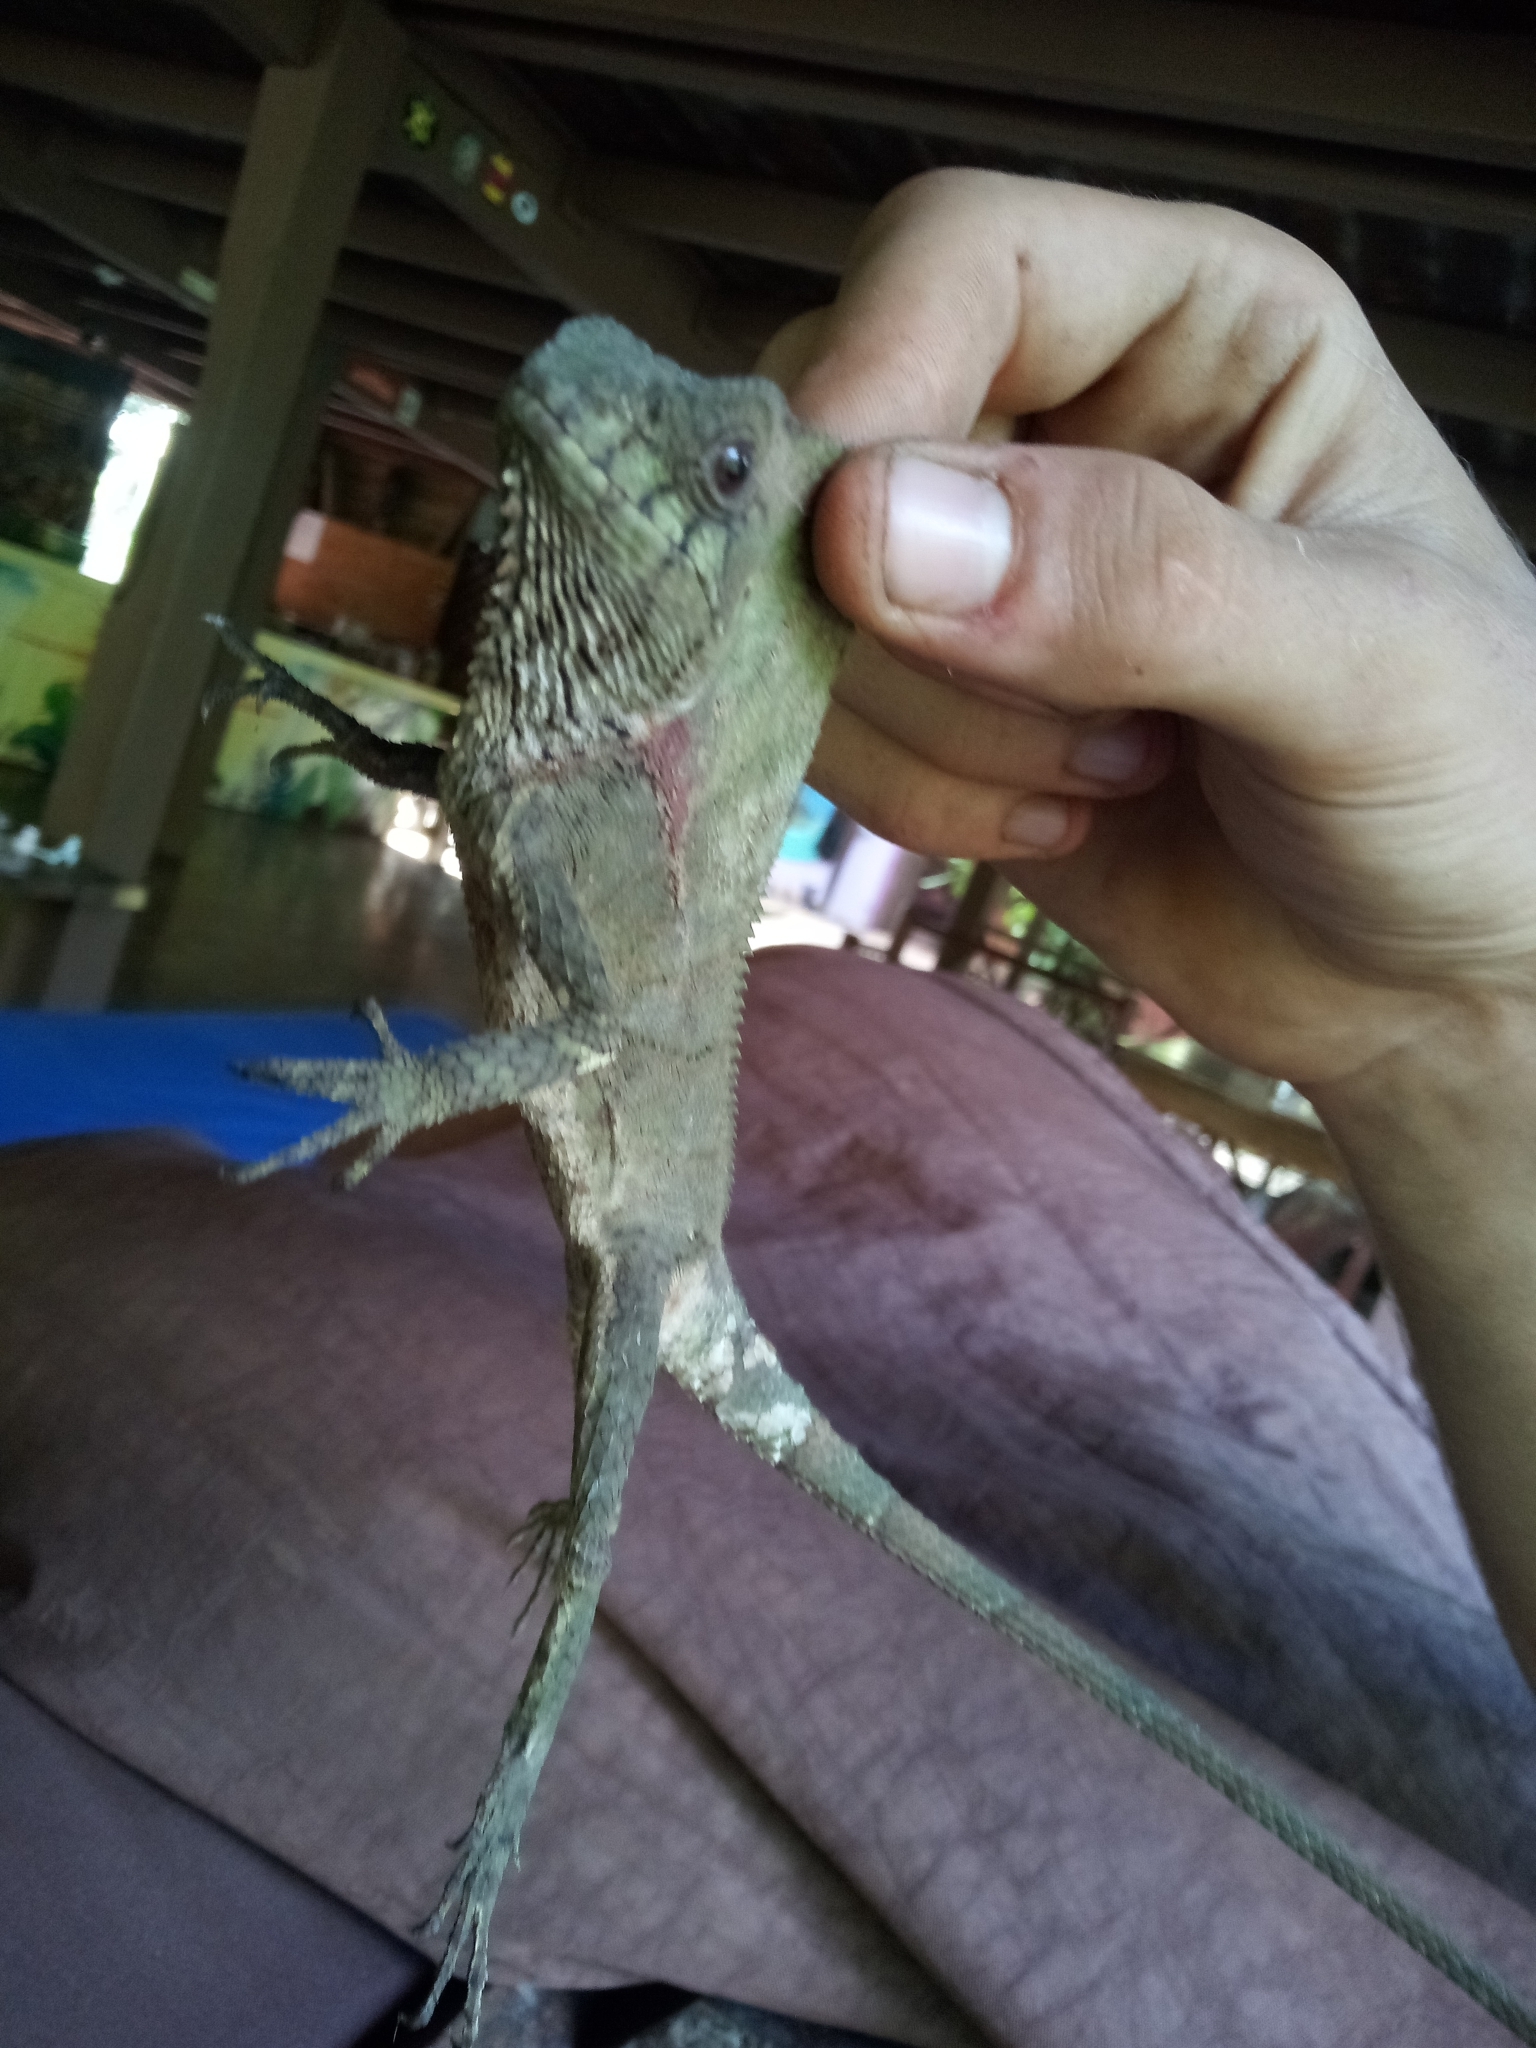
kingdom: Animalia
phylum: Chordata
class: Squamata
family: Corytophanidae
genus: Corytophanes
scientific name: Corytophanes cristatus
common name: Smooth helmeted iguana
